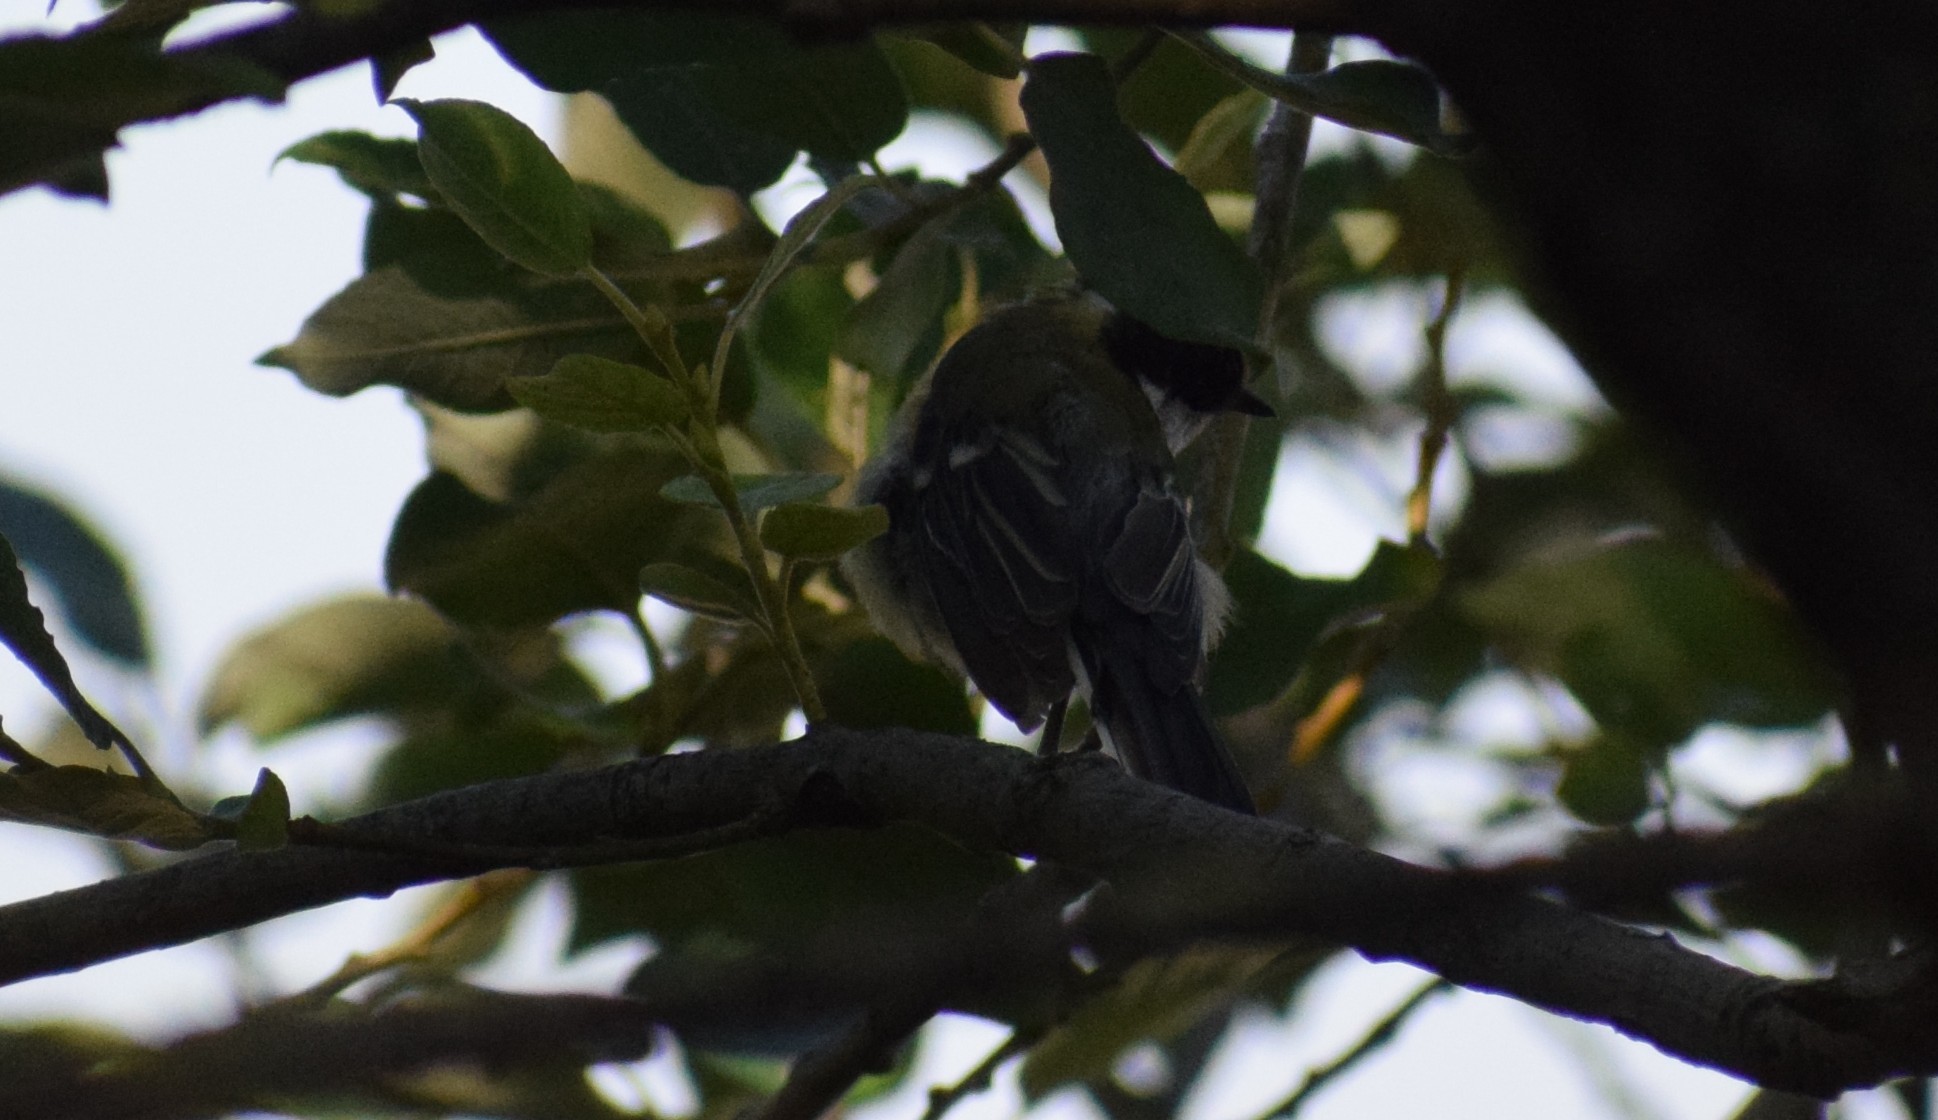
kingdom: Animalia
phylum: Chordata
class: Aves
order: Passeriformes
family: Paridae
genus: Parus
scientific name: Parus major
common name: Great tit
